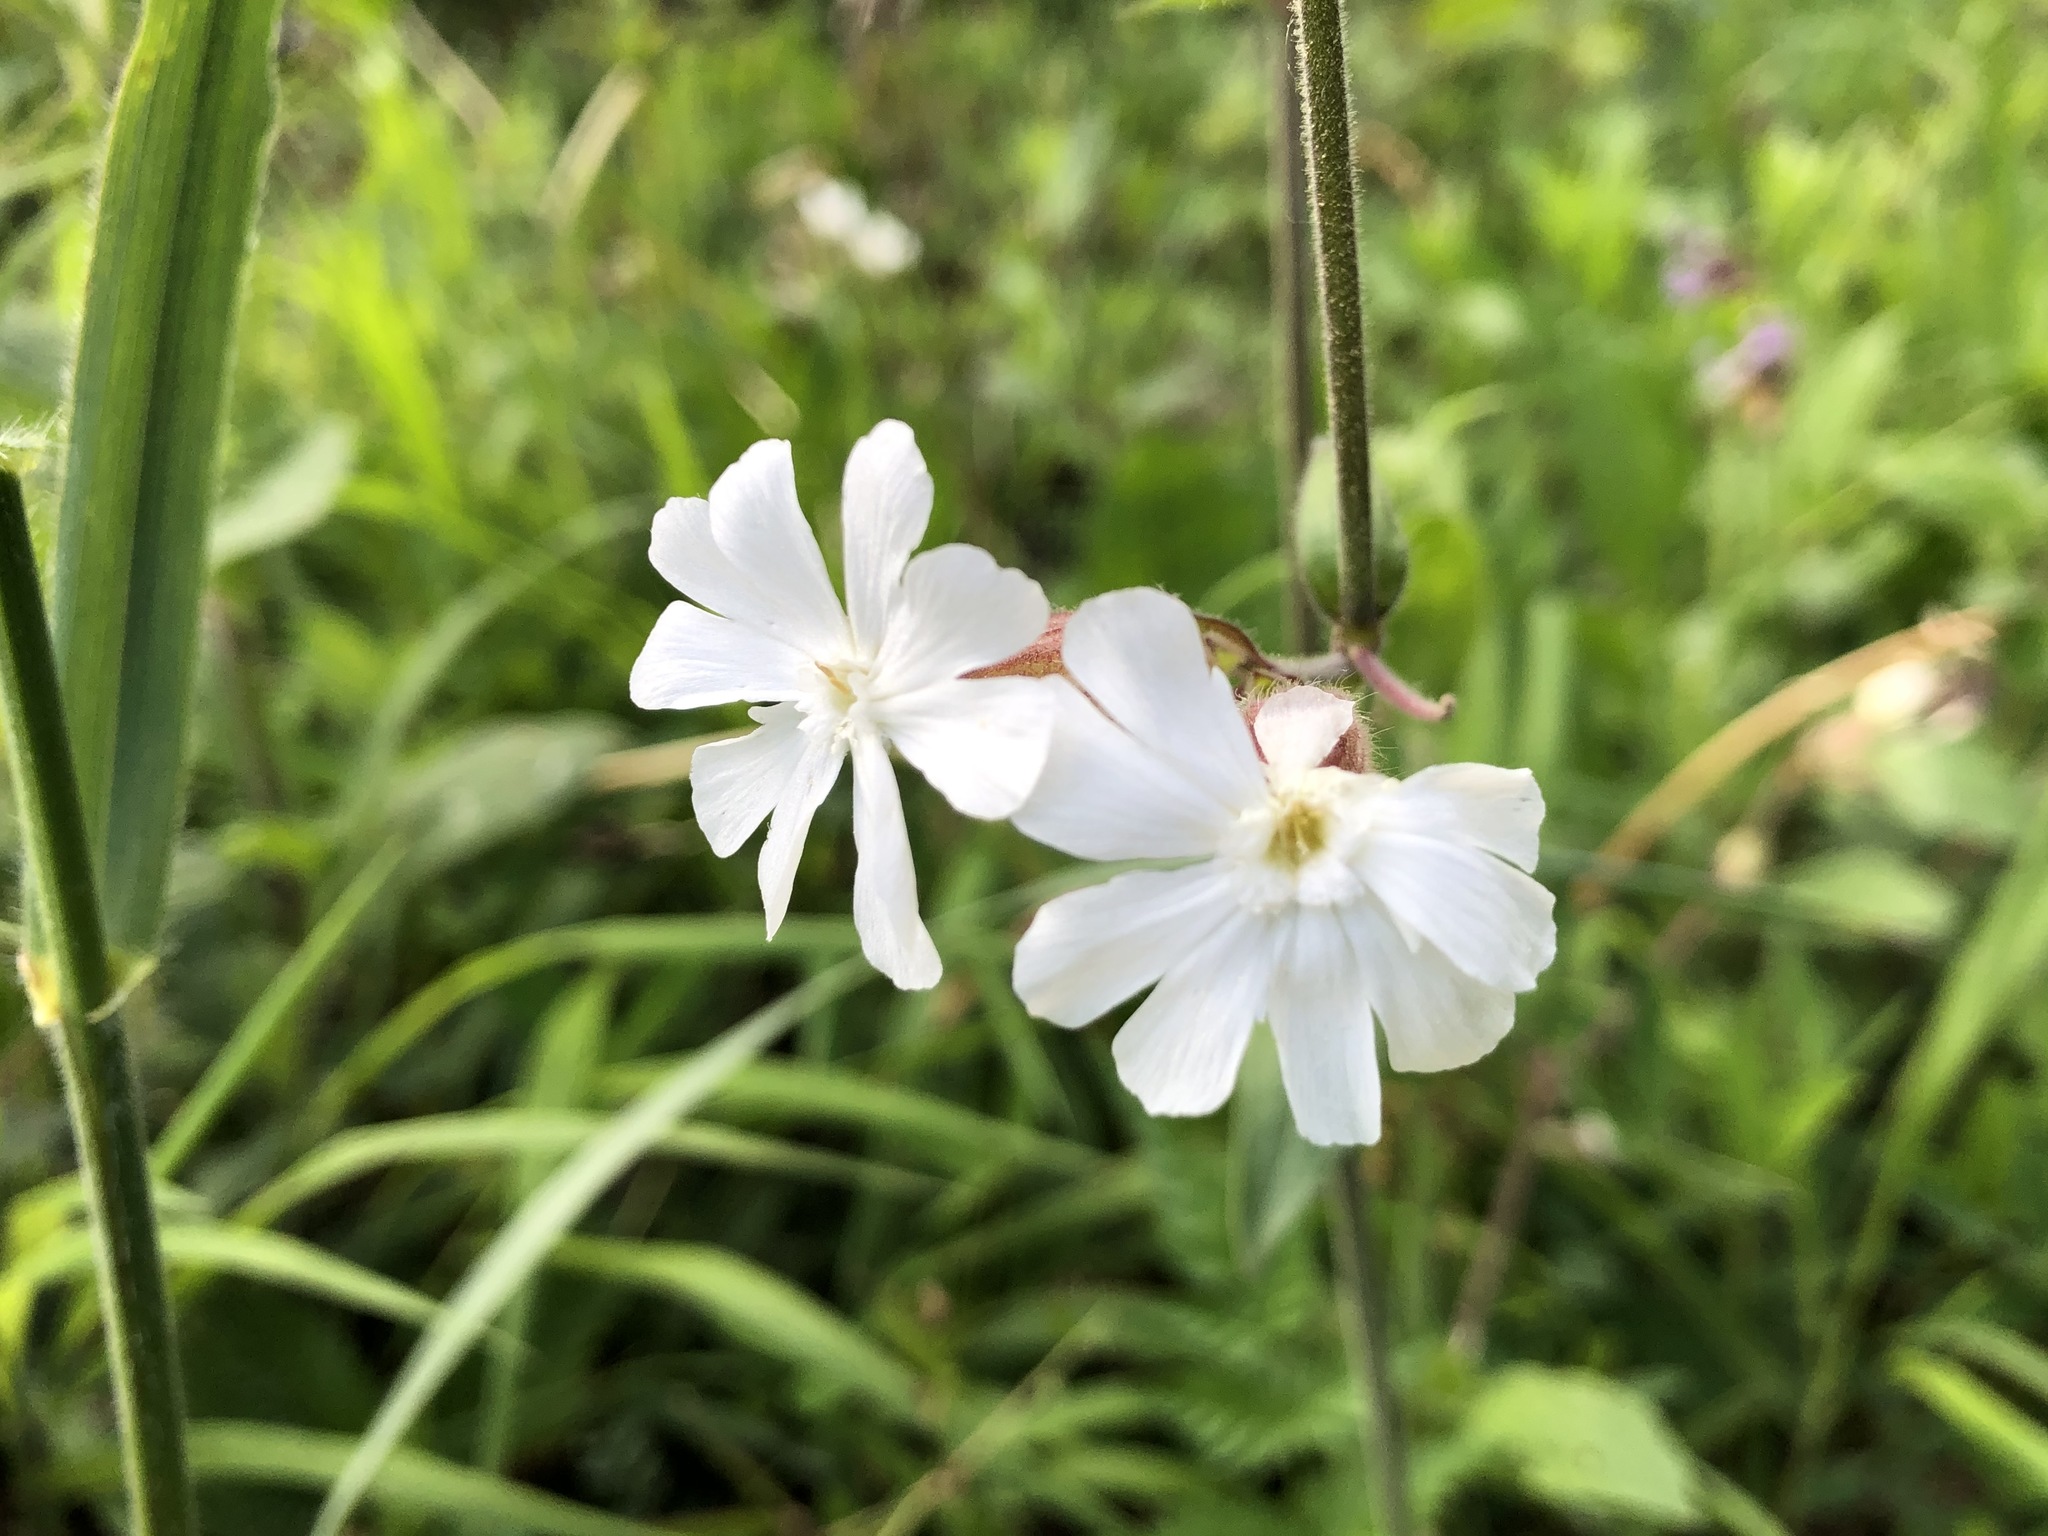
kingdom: Plantae
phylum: Tracheophyta
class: Magnoliopsida
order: Caryophyllales
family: Caryophyllaceae
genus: Silene
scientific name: Silene latifolia
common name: White campion
